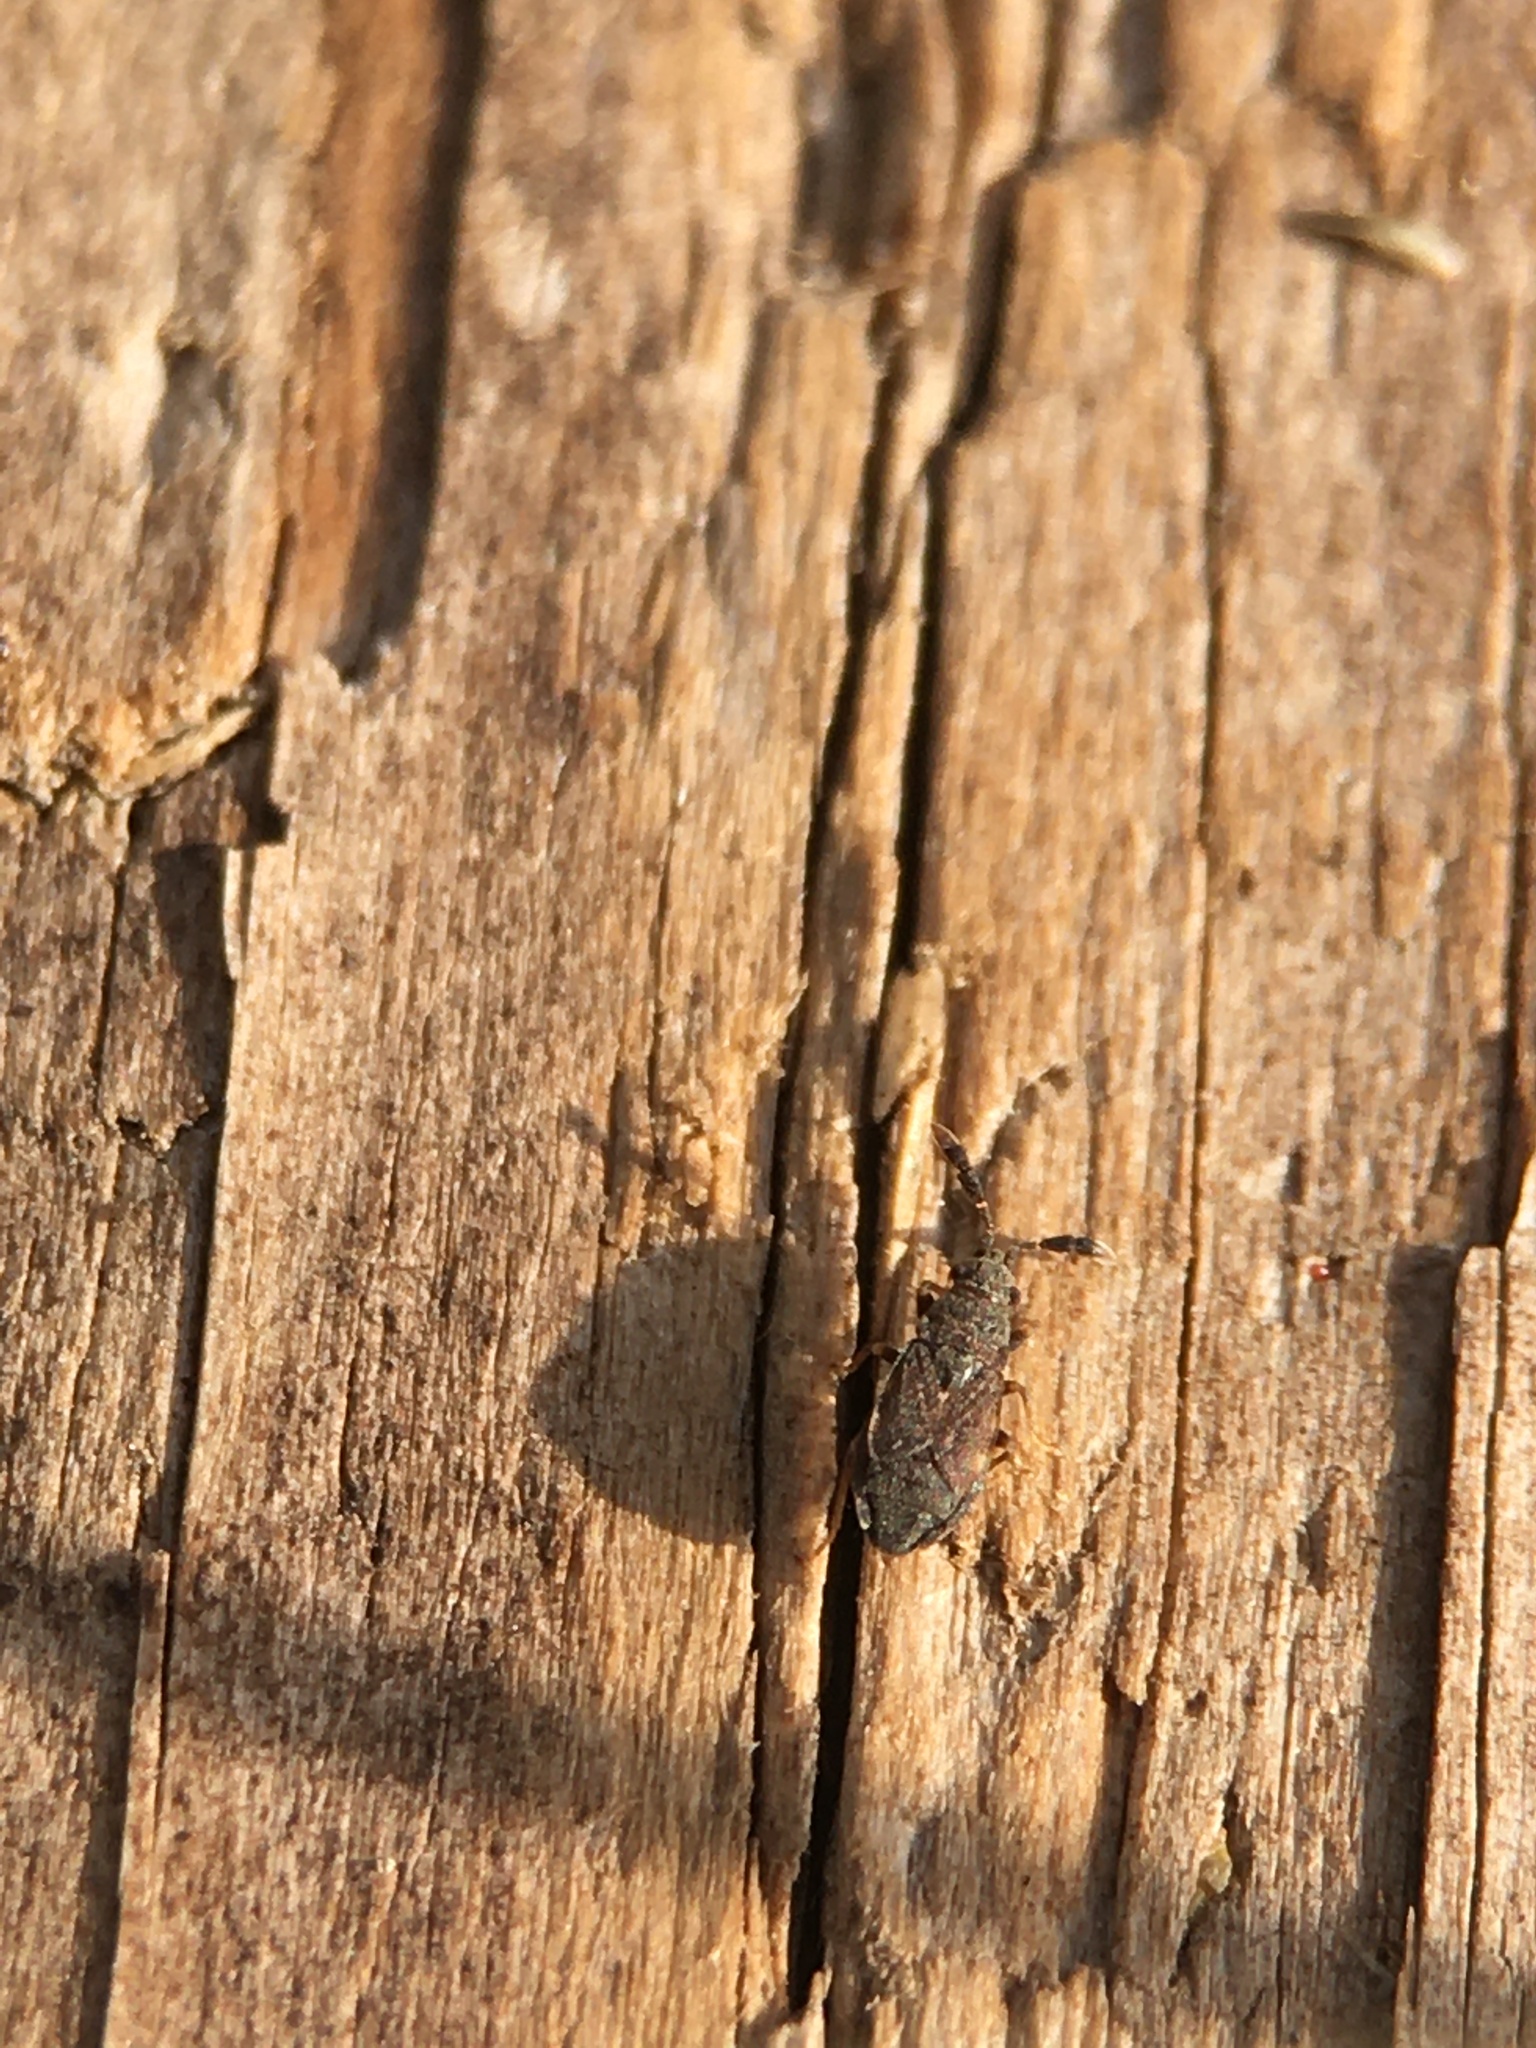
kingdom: Animalia
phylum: Arthropoda
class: Insecta
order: Hemiptera
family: Rhyparochromidae
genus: Sisamnes
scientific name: Sisamnes claviger
